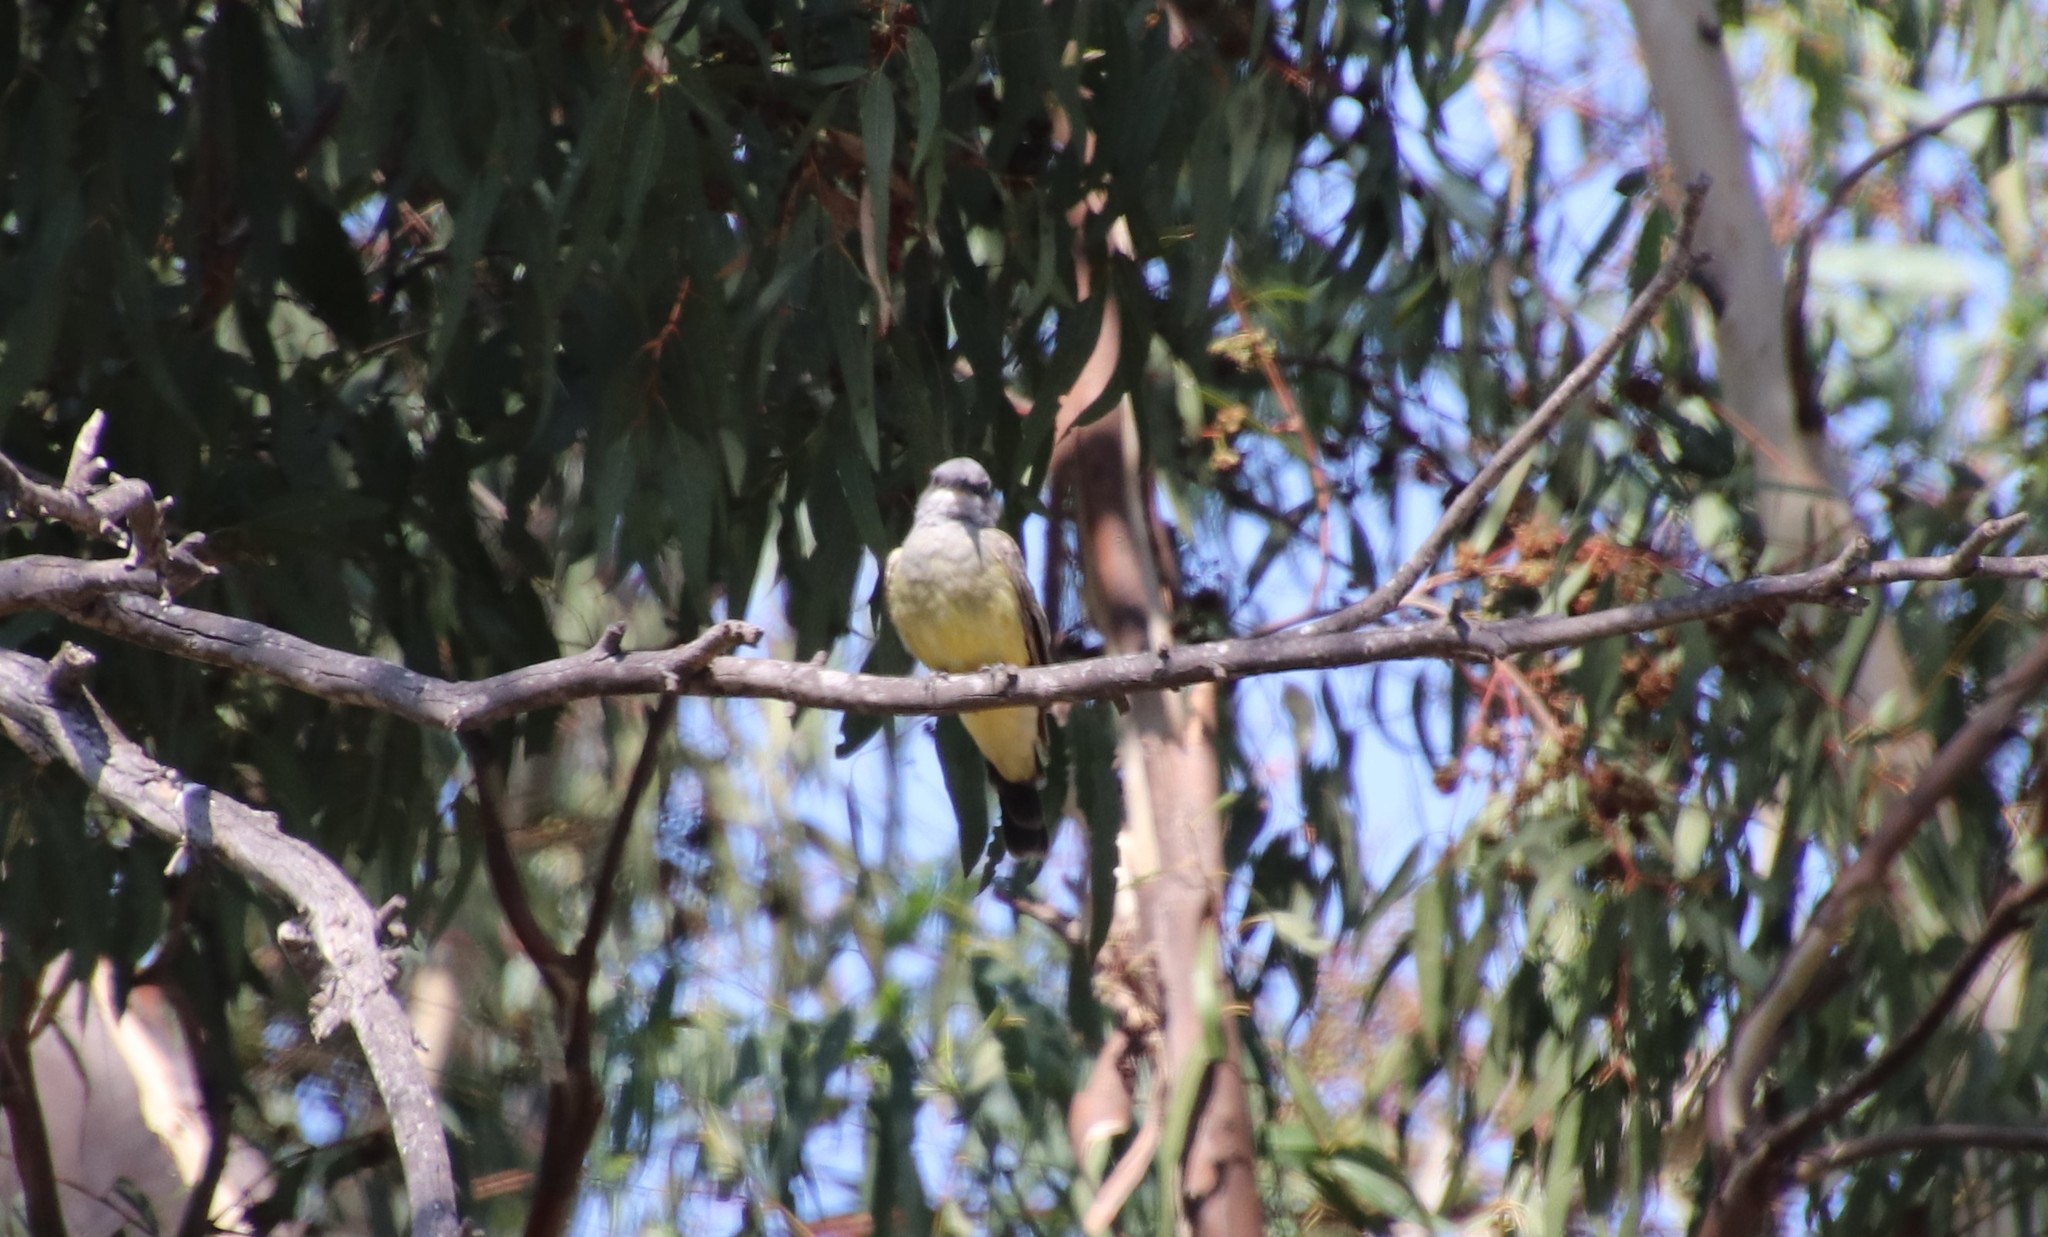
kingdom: Animalia
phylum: Chordata
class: Aves
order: Passeriformes
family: Tyrannidae
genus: Tyrannus
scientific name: Tyrannus vociferans
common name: Cassin's kingbird
